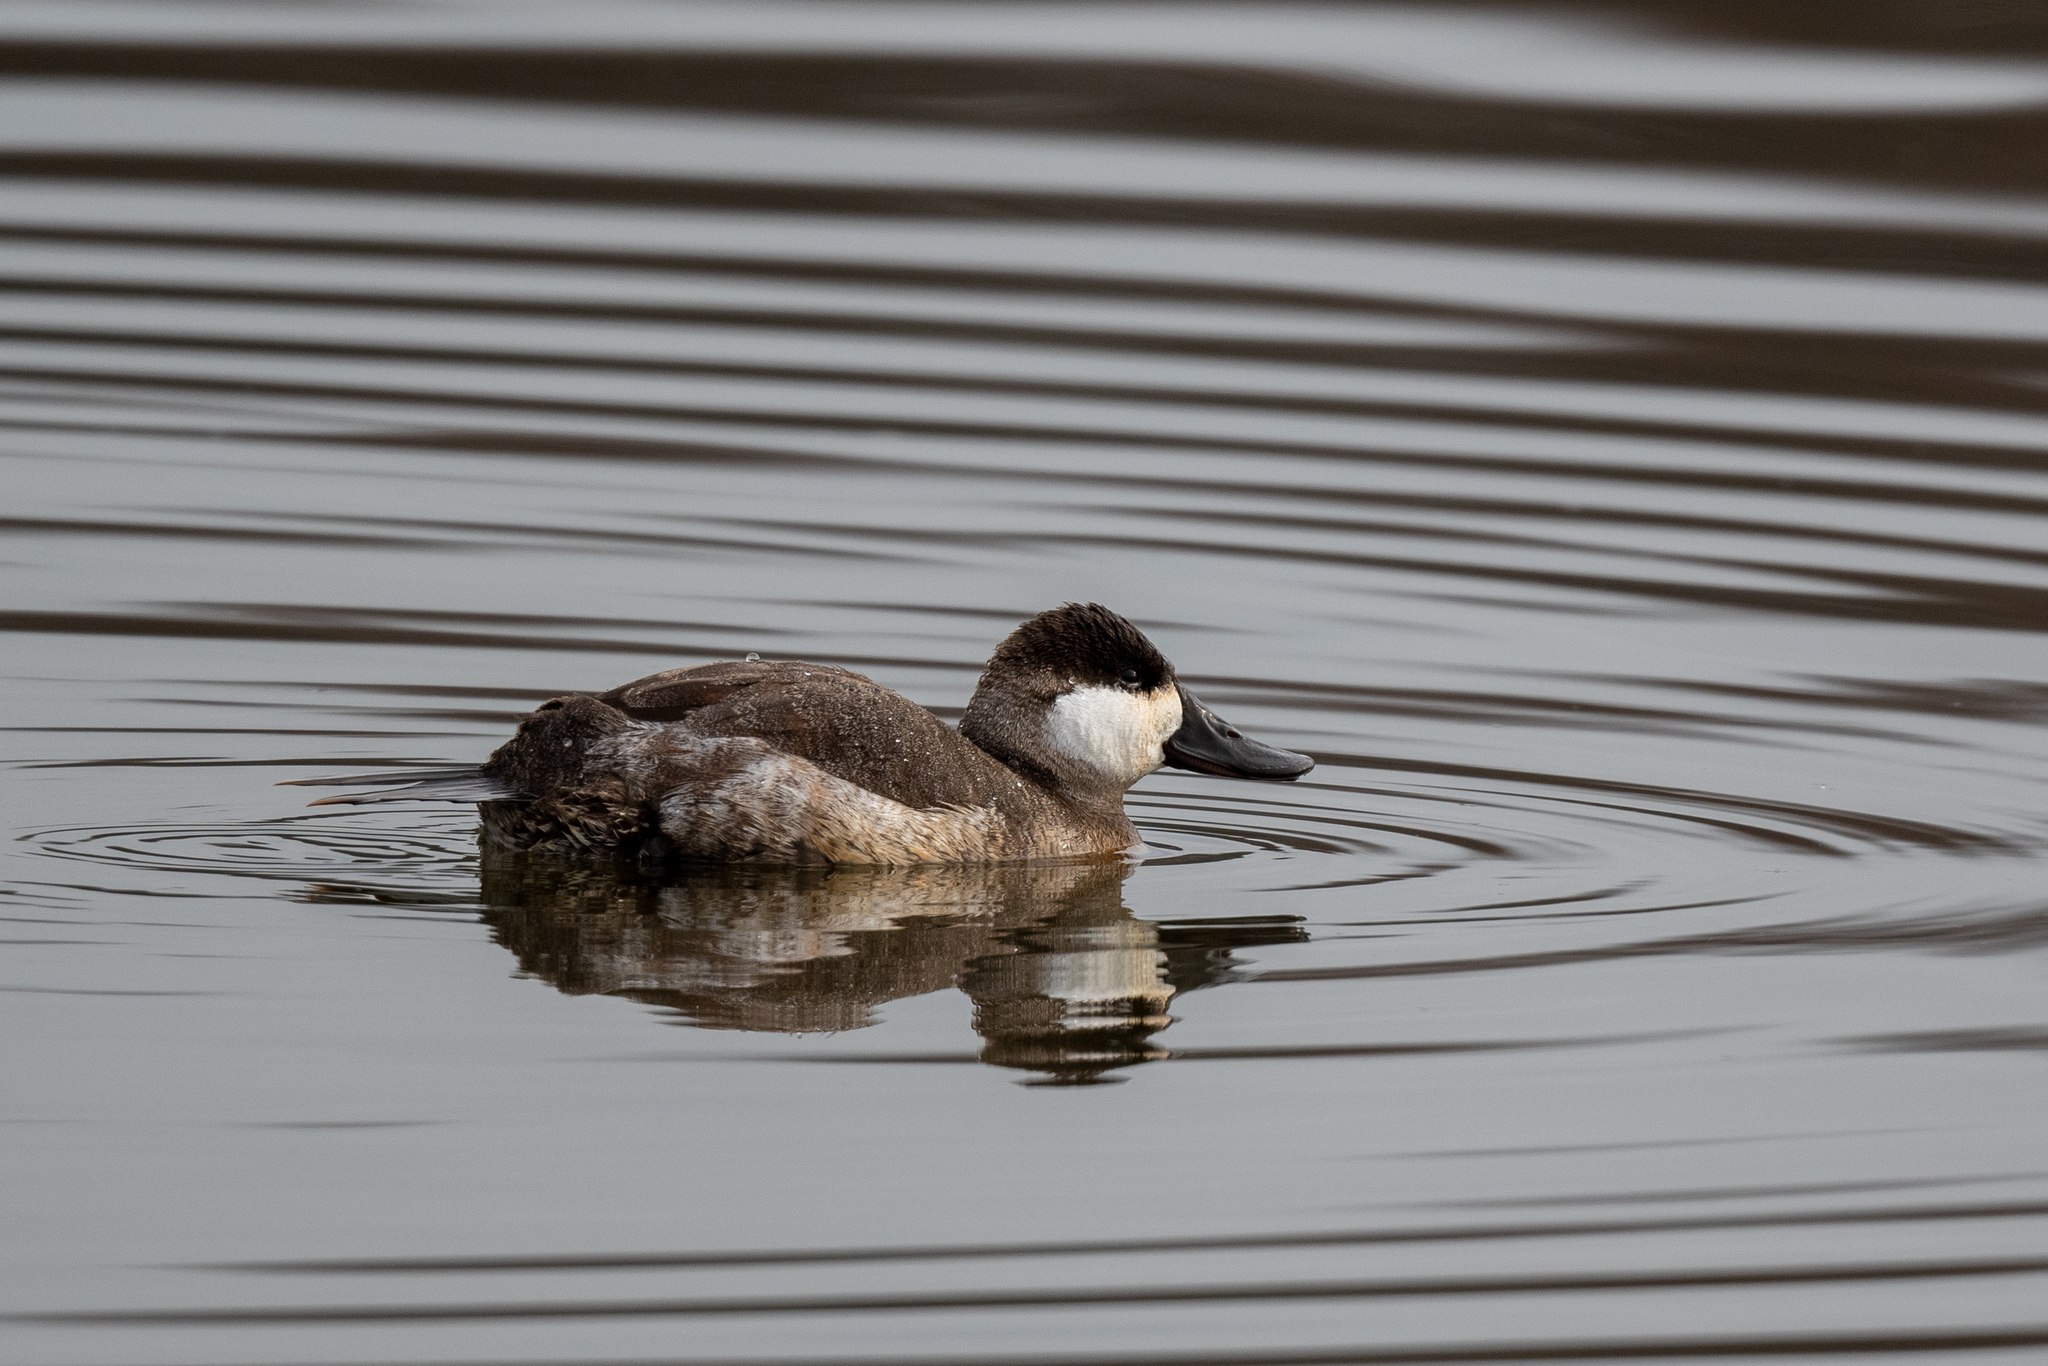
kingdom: Animalia
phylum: Chordata
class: Aves
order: Anseriformes
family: Anatidae
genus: Oxyura
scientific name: Oxyura jamaicensis
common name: Ruddy duck
